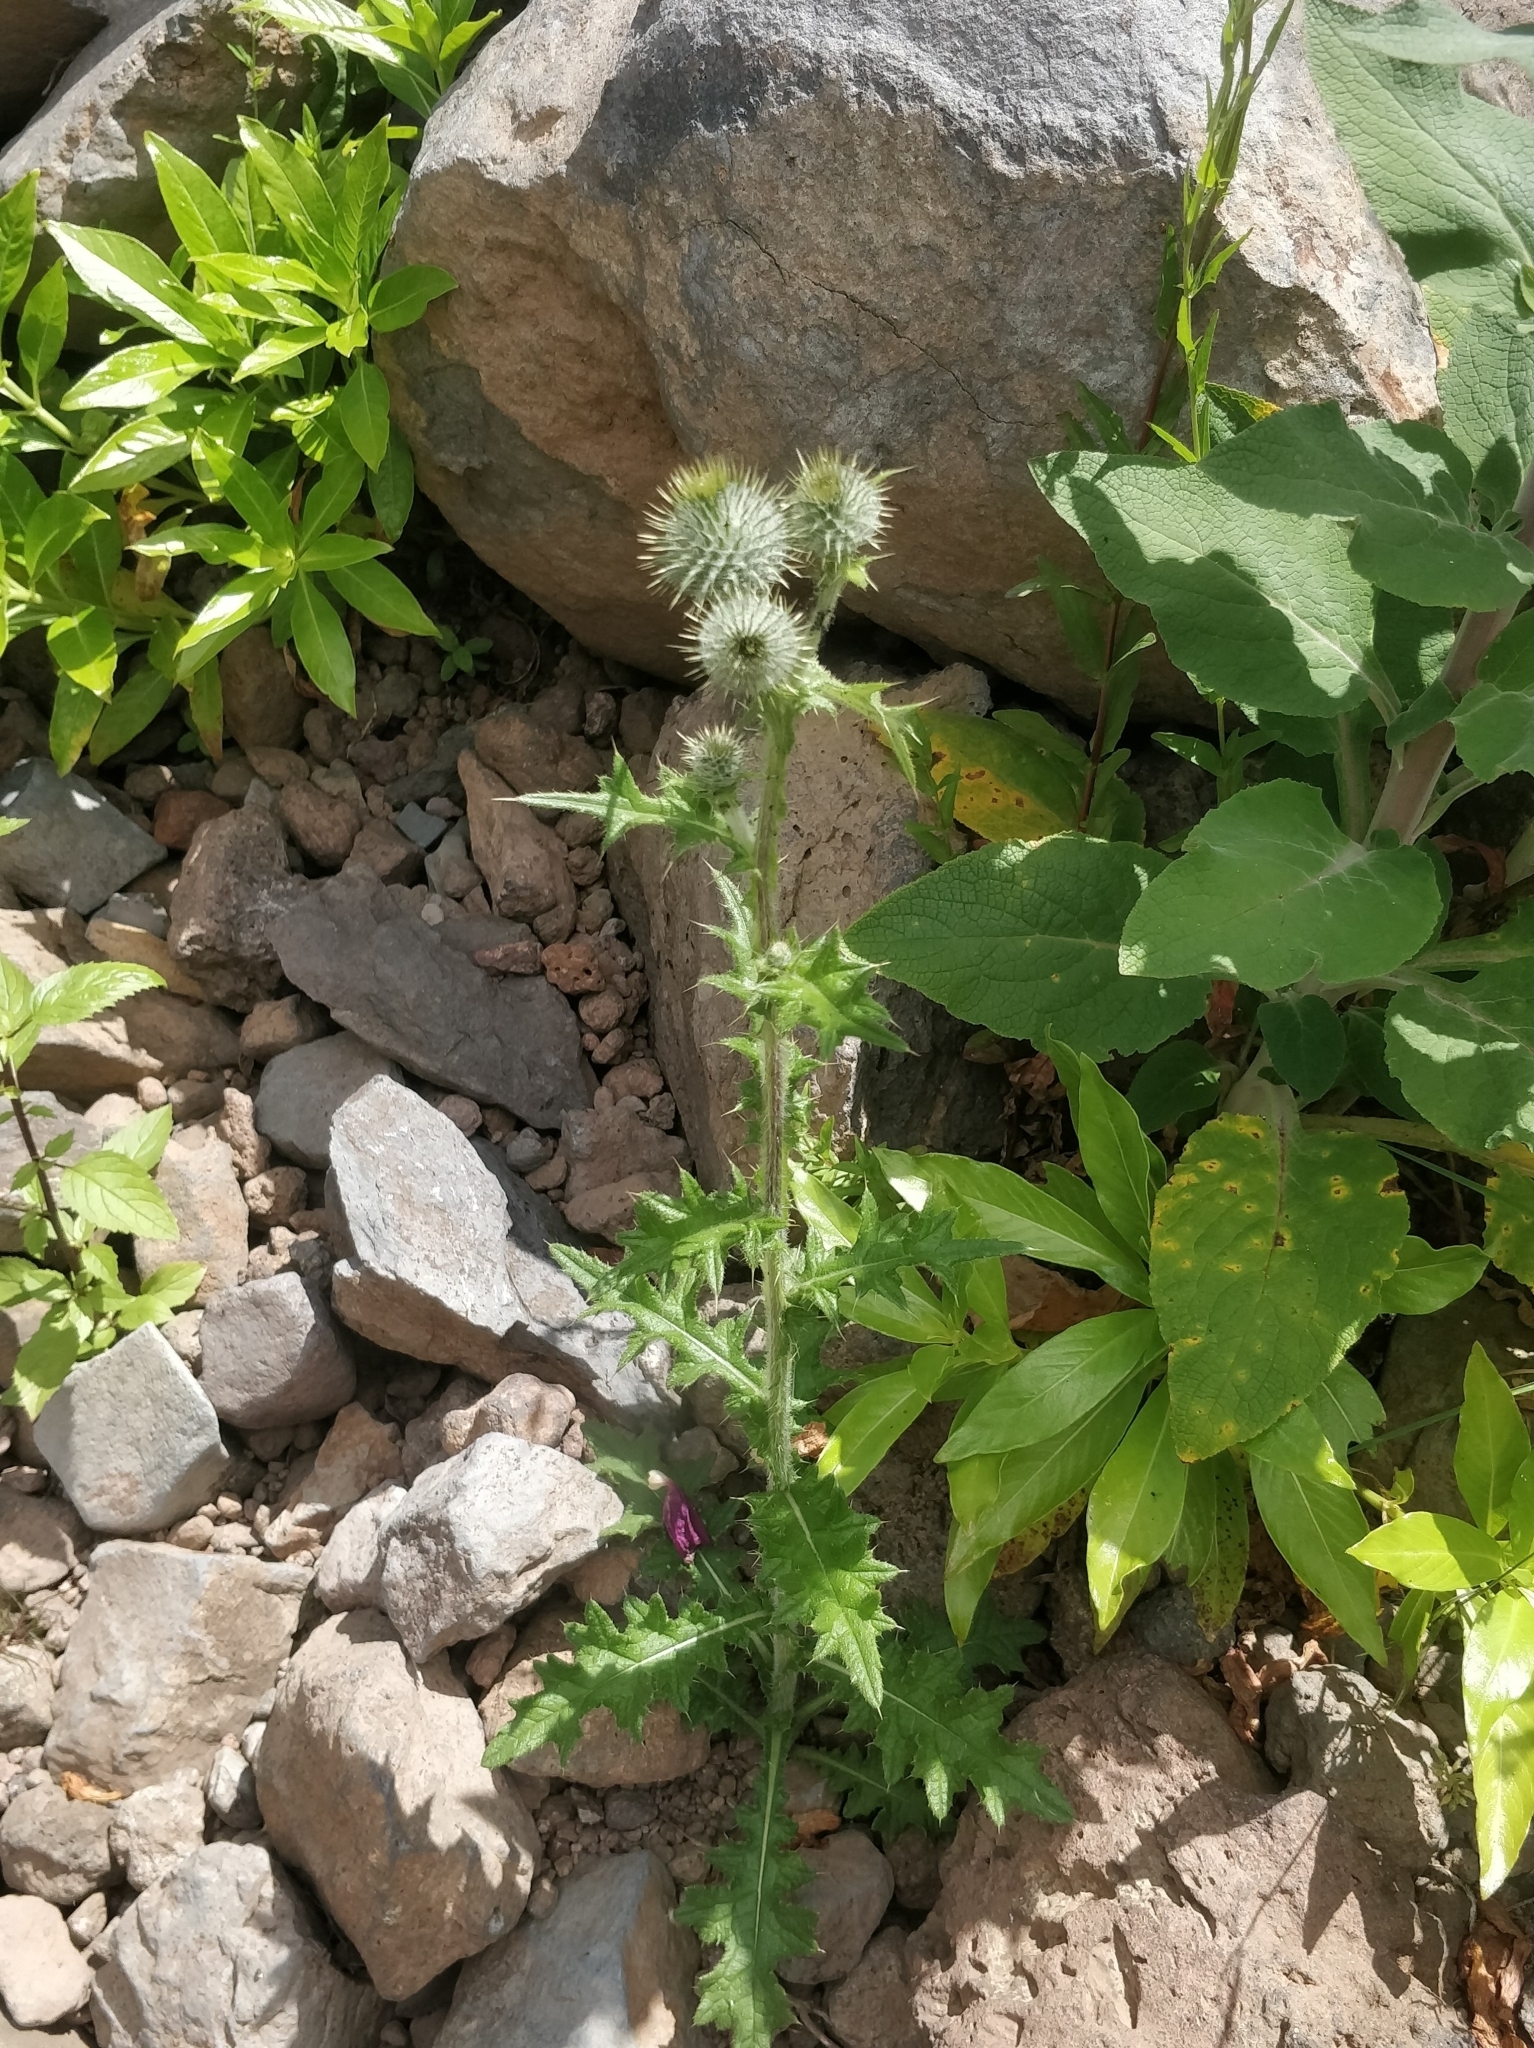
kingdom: Plantae
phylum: Tracheophyta
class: Magnoliopsida
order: Asterales
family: Asteraceae
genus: Cirsium
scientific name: Cirsium vulgare
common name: Bull thistle
